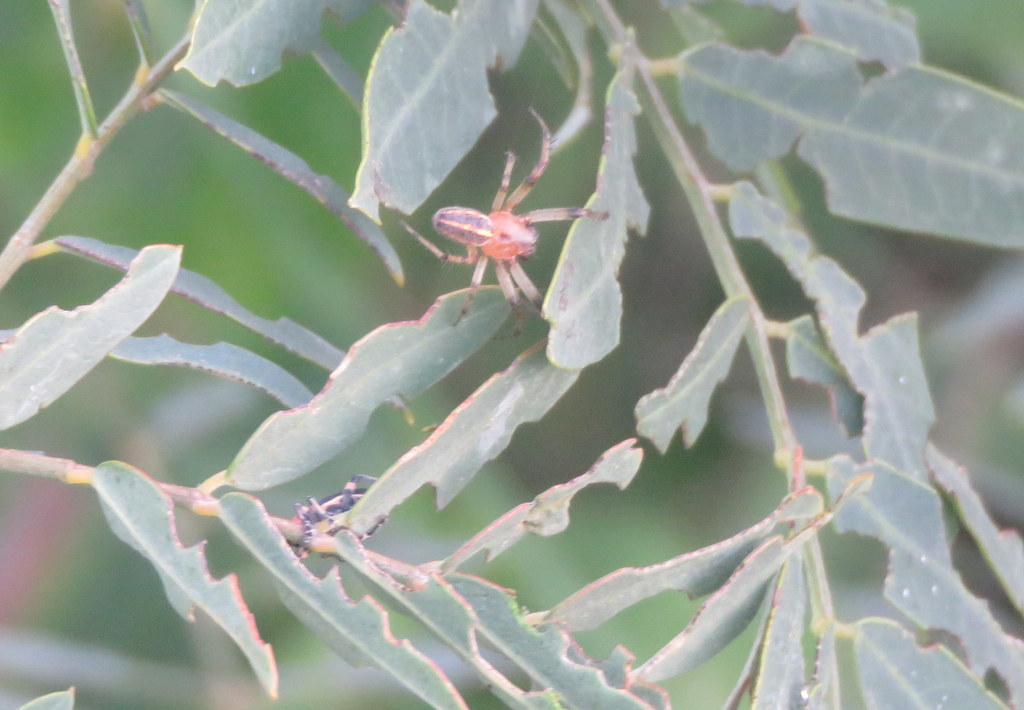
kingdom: Animalia
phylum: Arthropoda
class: Arachnida
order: Araneae
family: Araneidae
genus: Alpaida
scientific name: Alpaida veniliae
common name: Orb weavers
